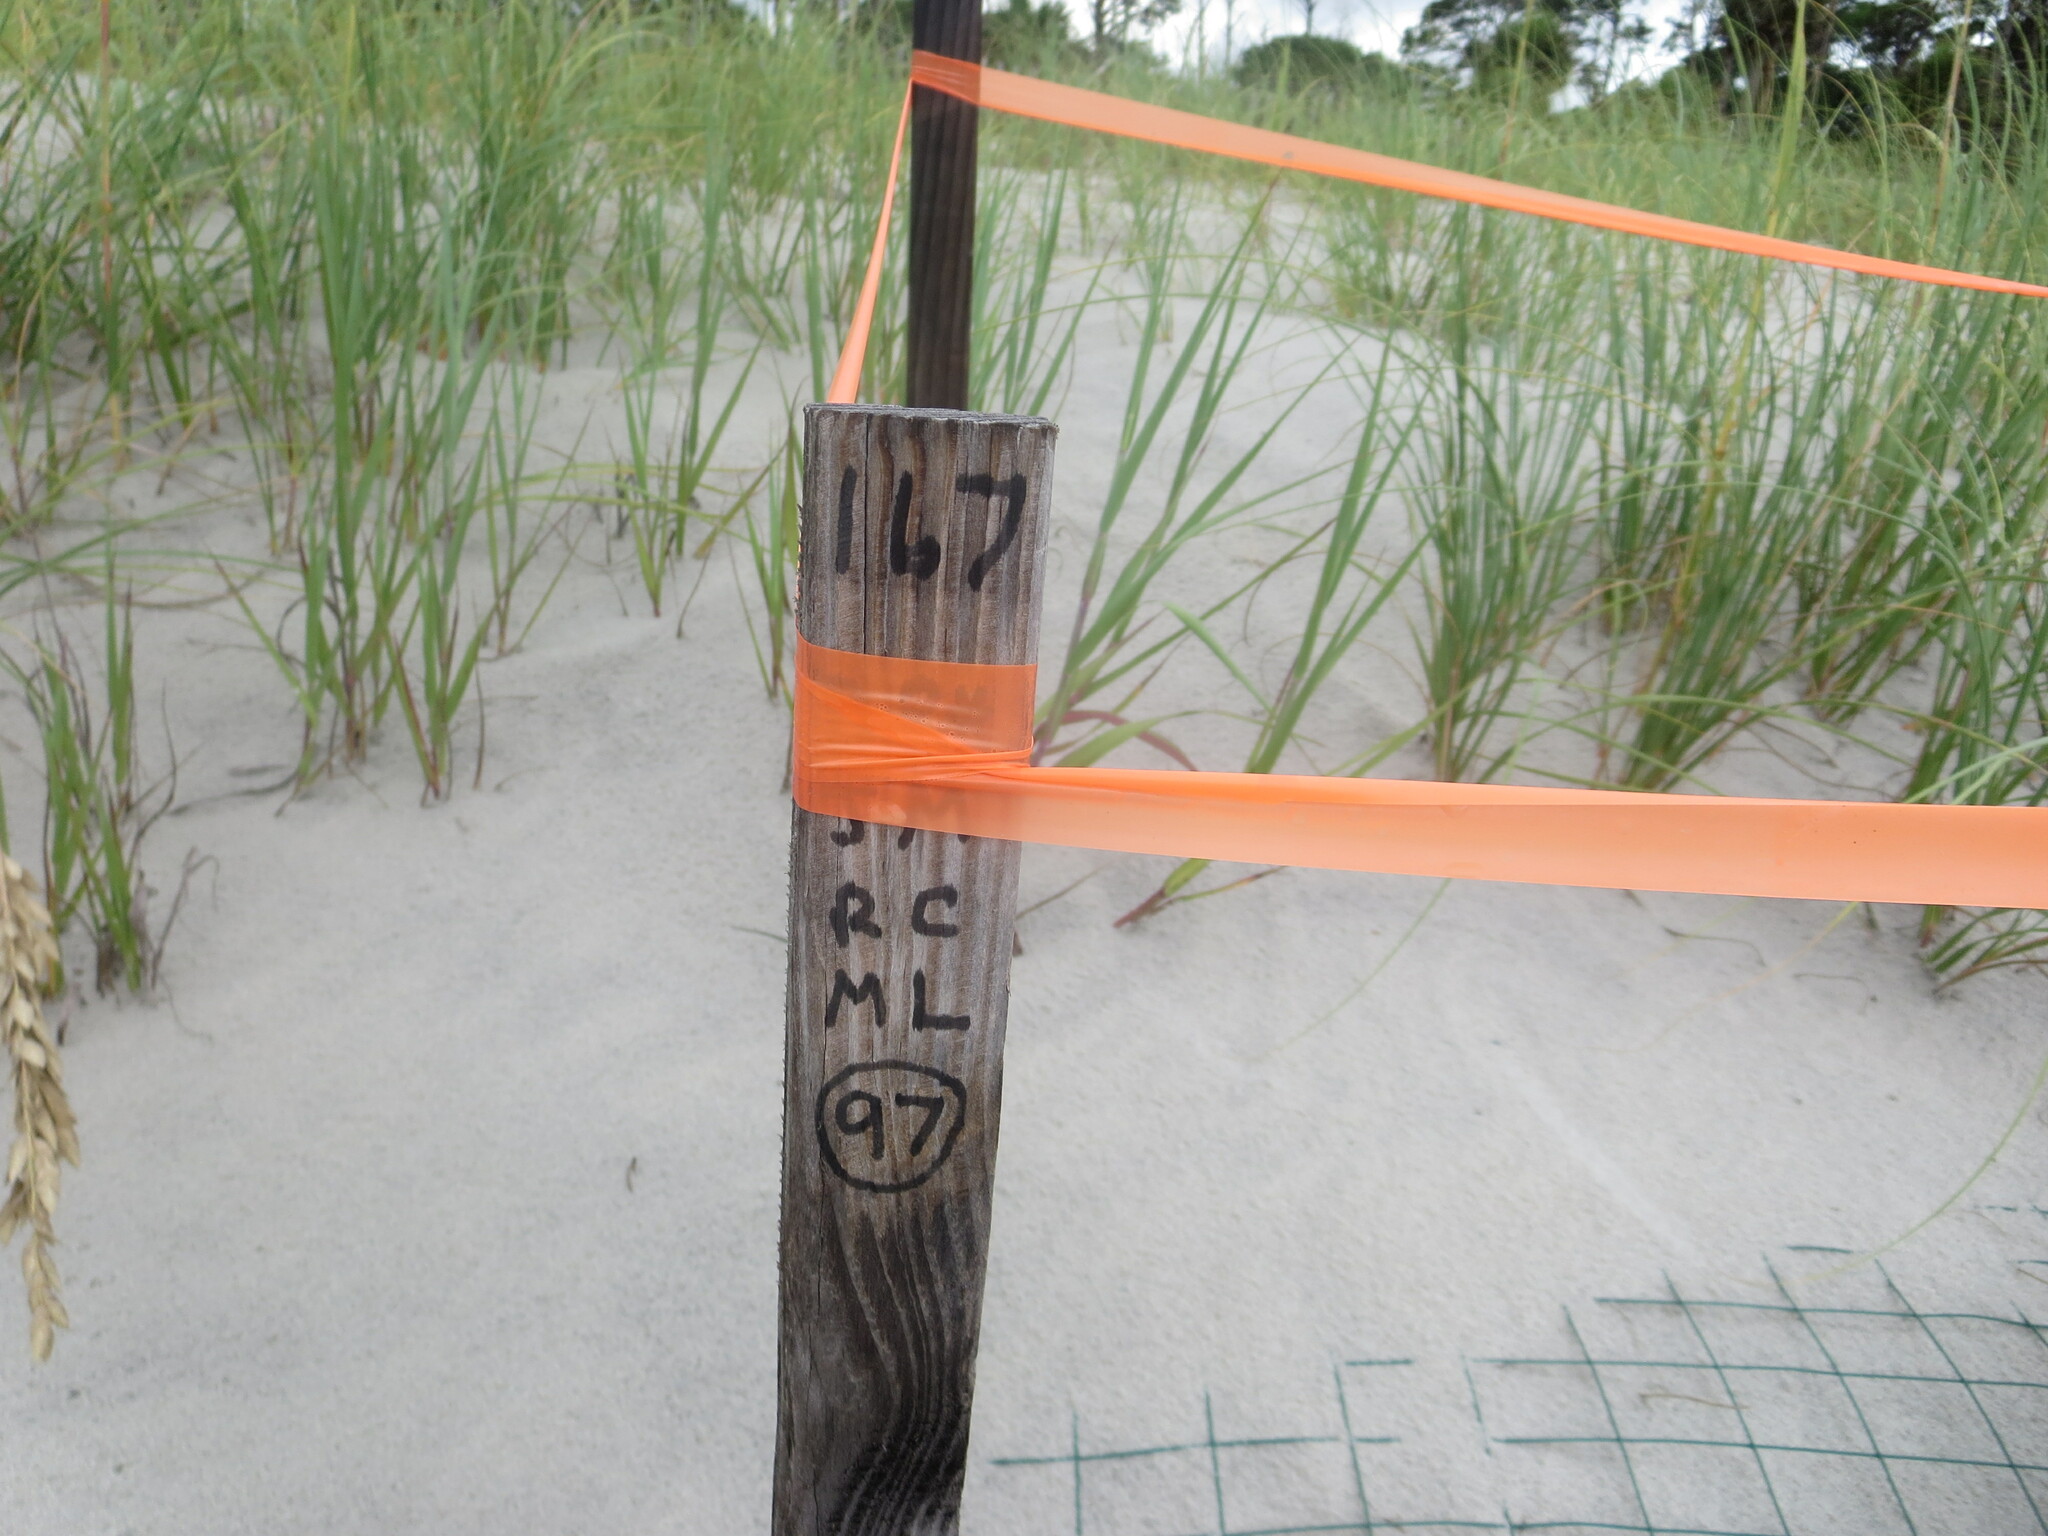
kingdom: Animalia
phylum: Chordata
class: Testudines
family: Cheloniidae
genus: Caretta
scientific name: Caretta caretta
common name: Loggerhead sea turtle
